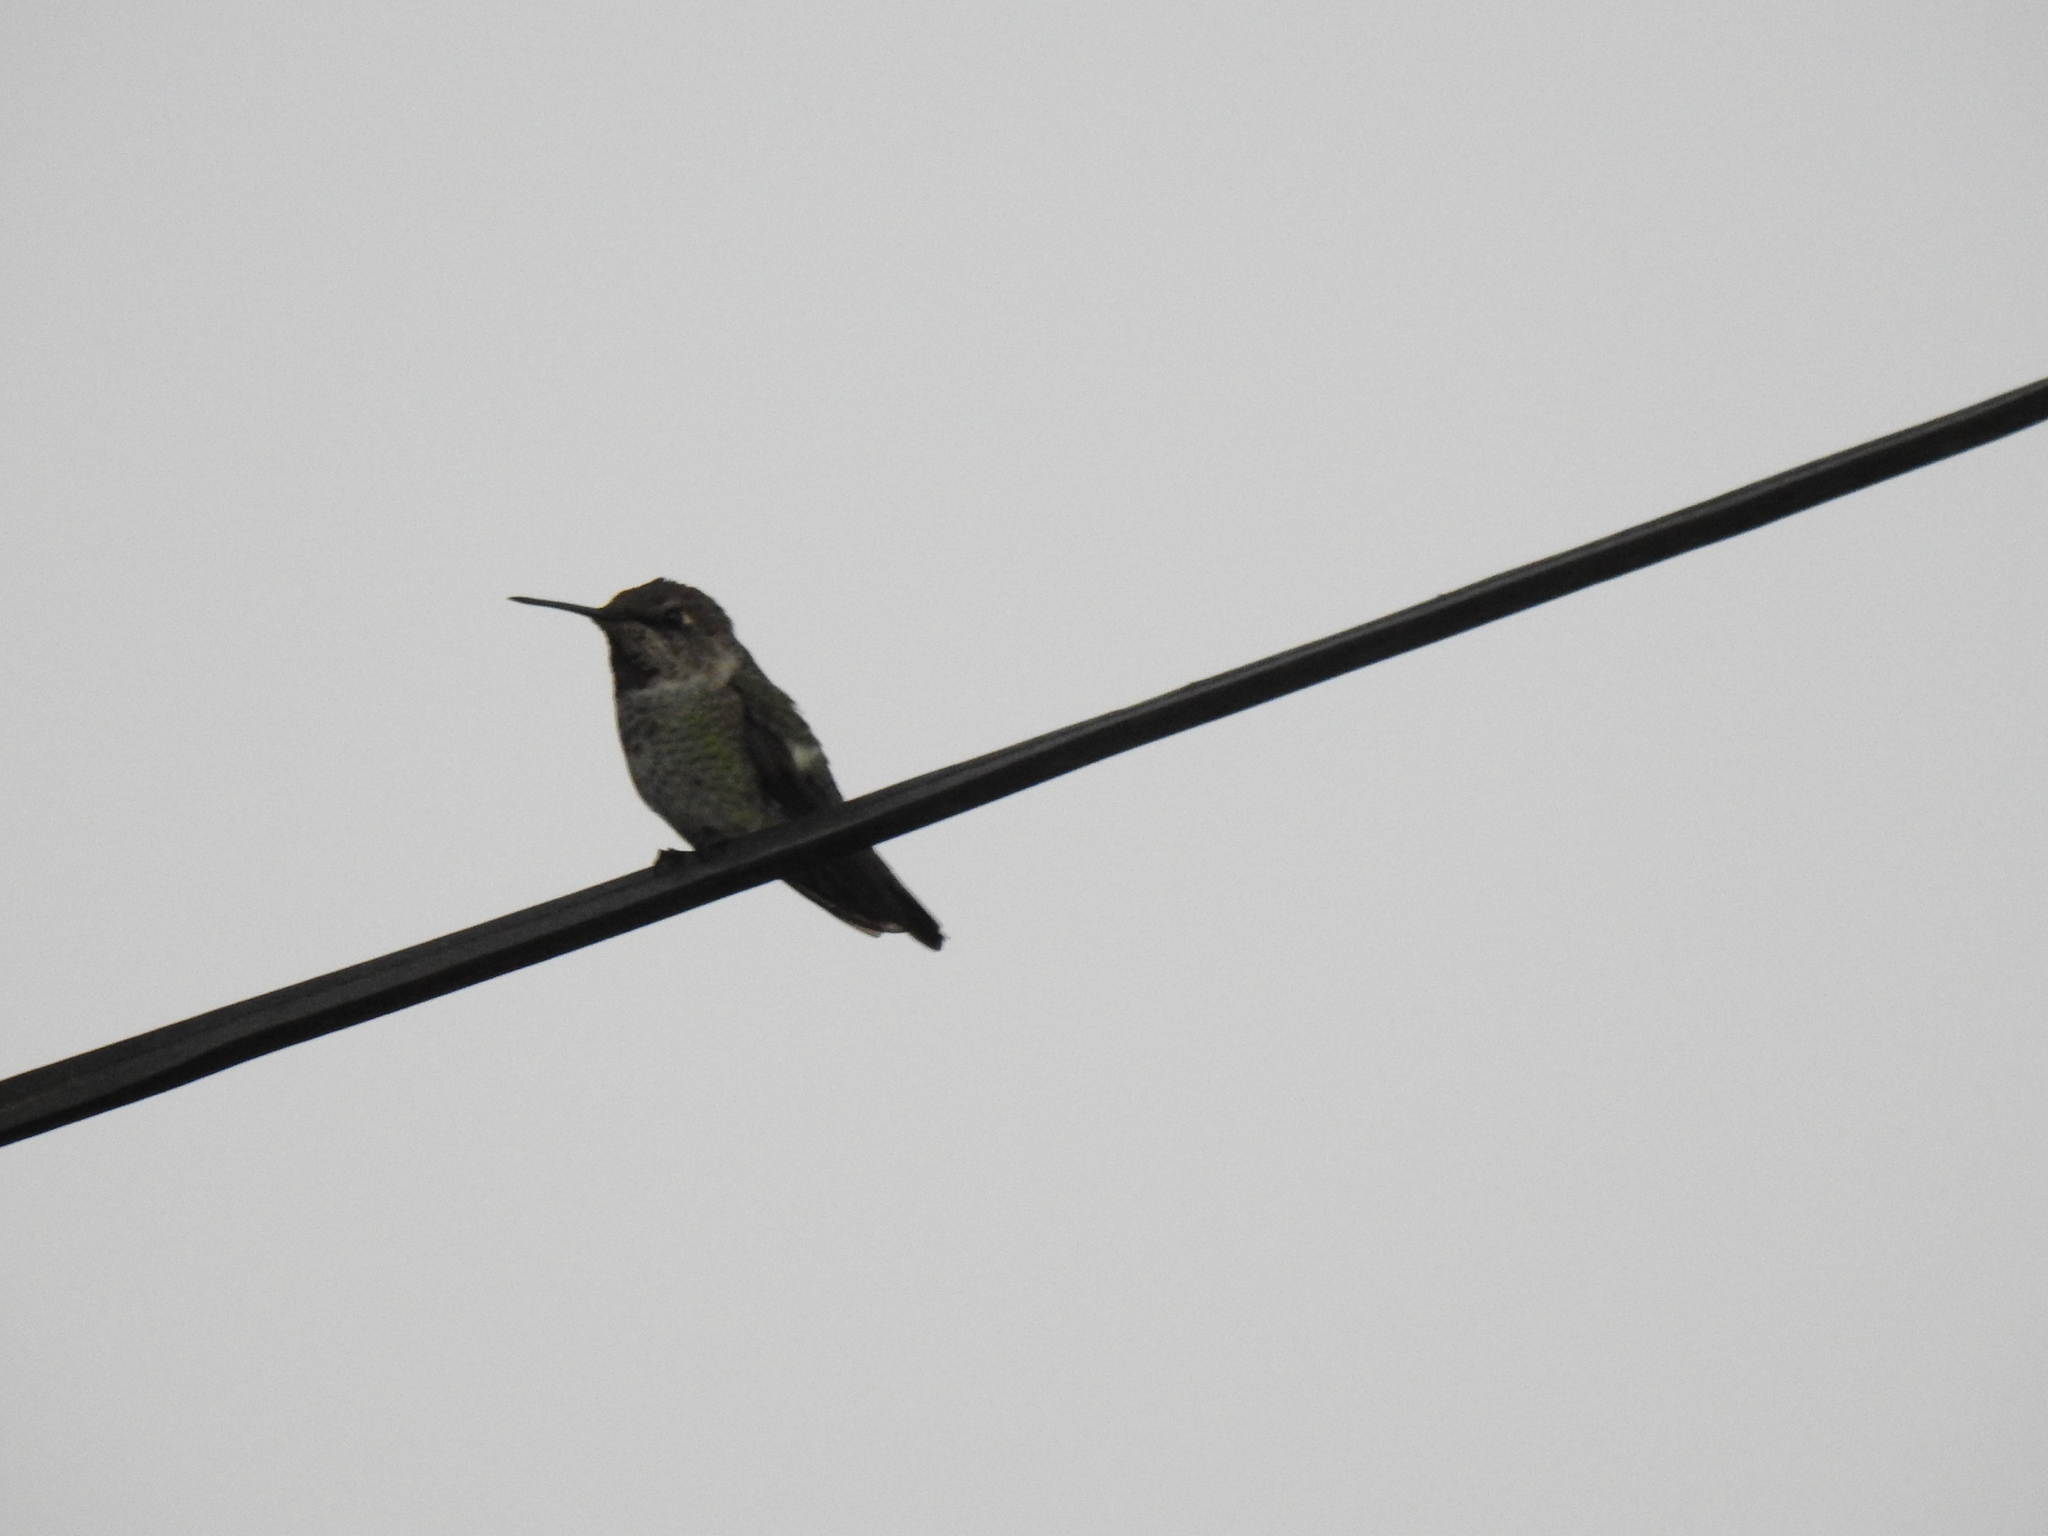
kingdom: Animalia
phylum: Chordata
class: Aves
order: Apodiformes
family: Trochilidae
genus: Calypte
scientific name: Calypte anna
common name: Anna's hummingbird
